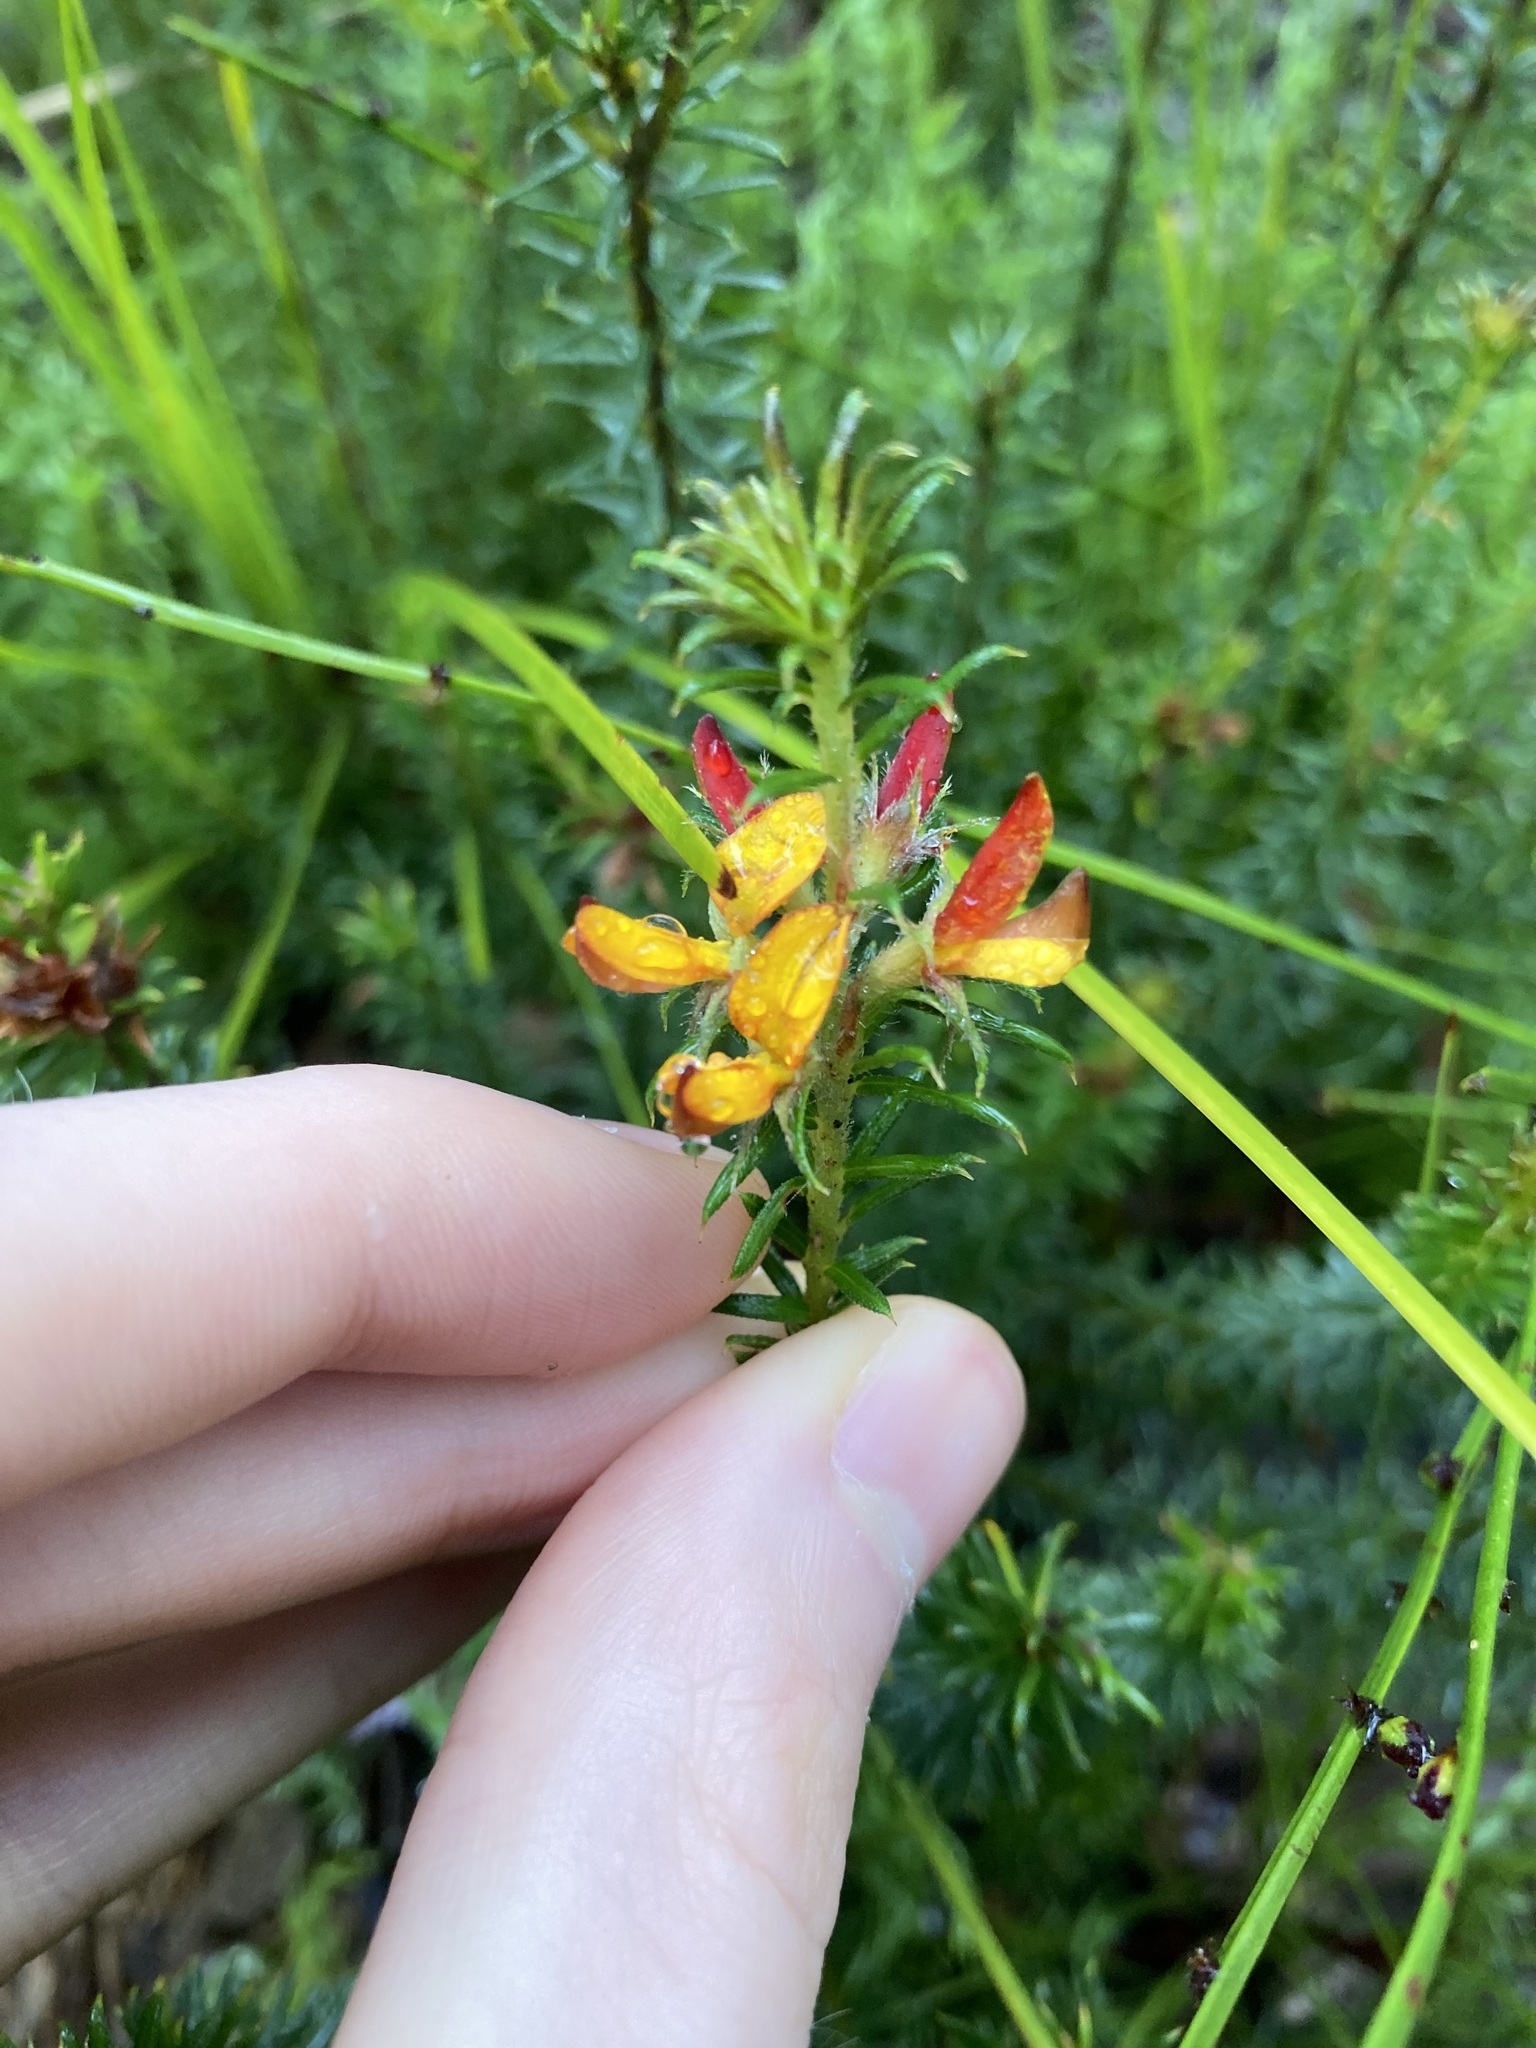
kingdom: Plantae
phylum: Tracheophyta
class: Magnoliopsida
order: Fabales
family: Fabaceae
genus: Phyllota
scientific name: Phyllota squarrosa
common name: Dense phyllota
